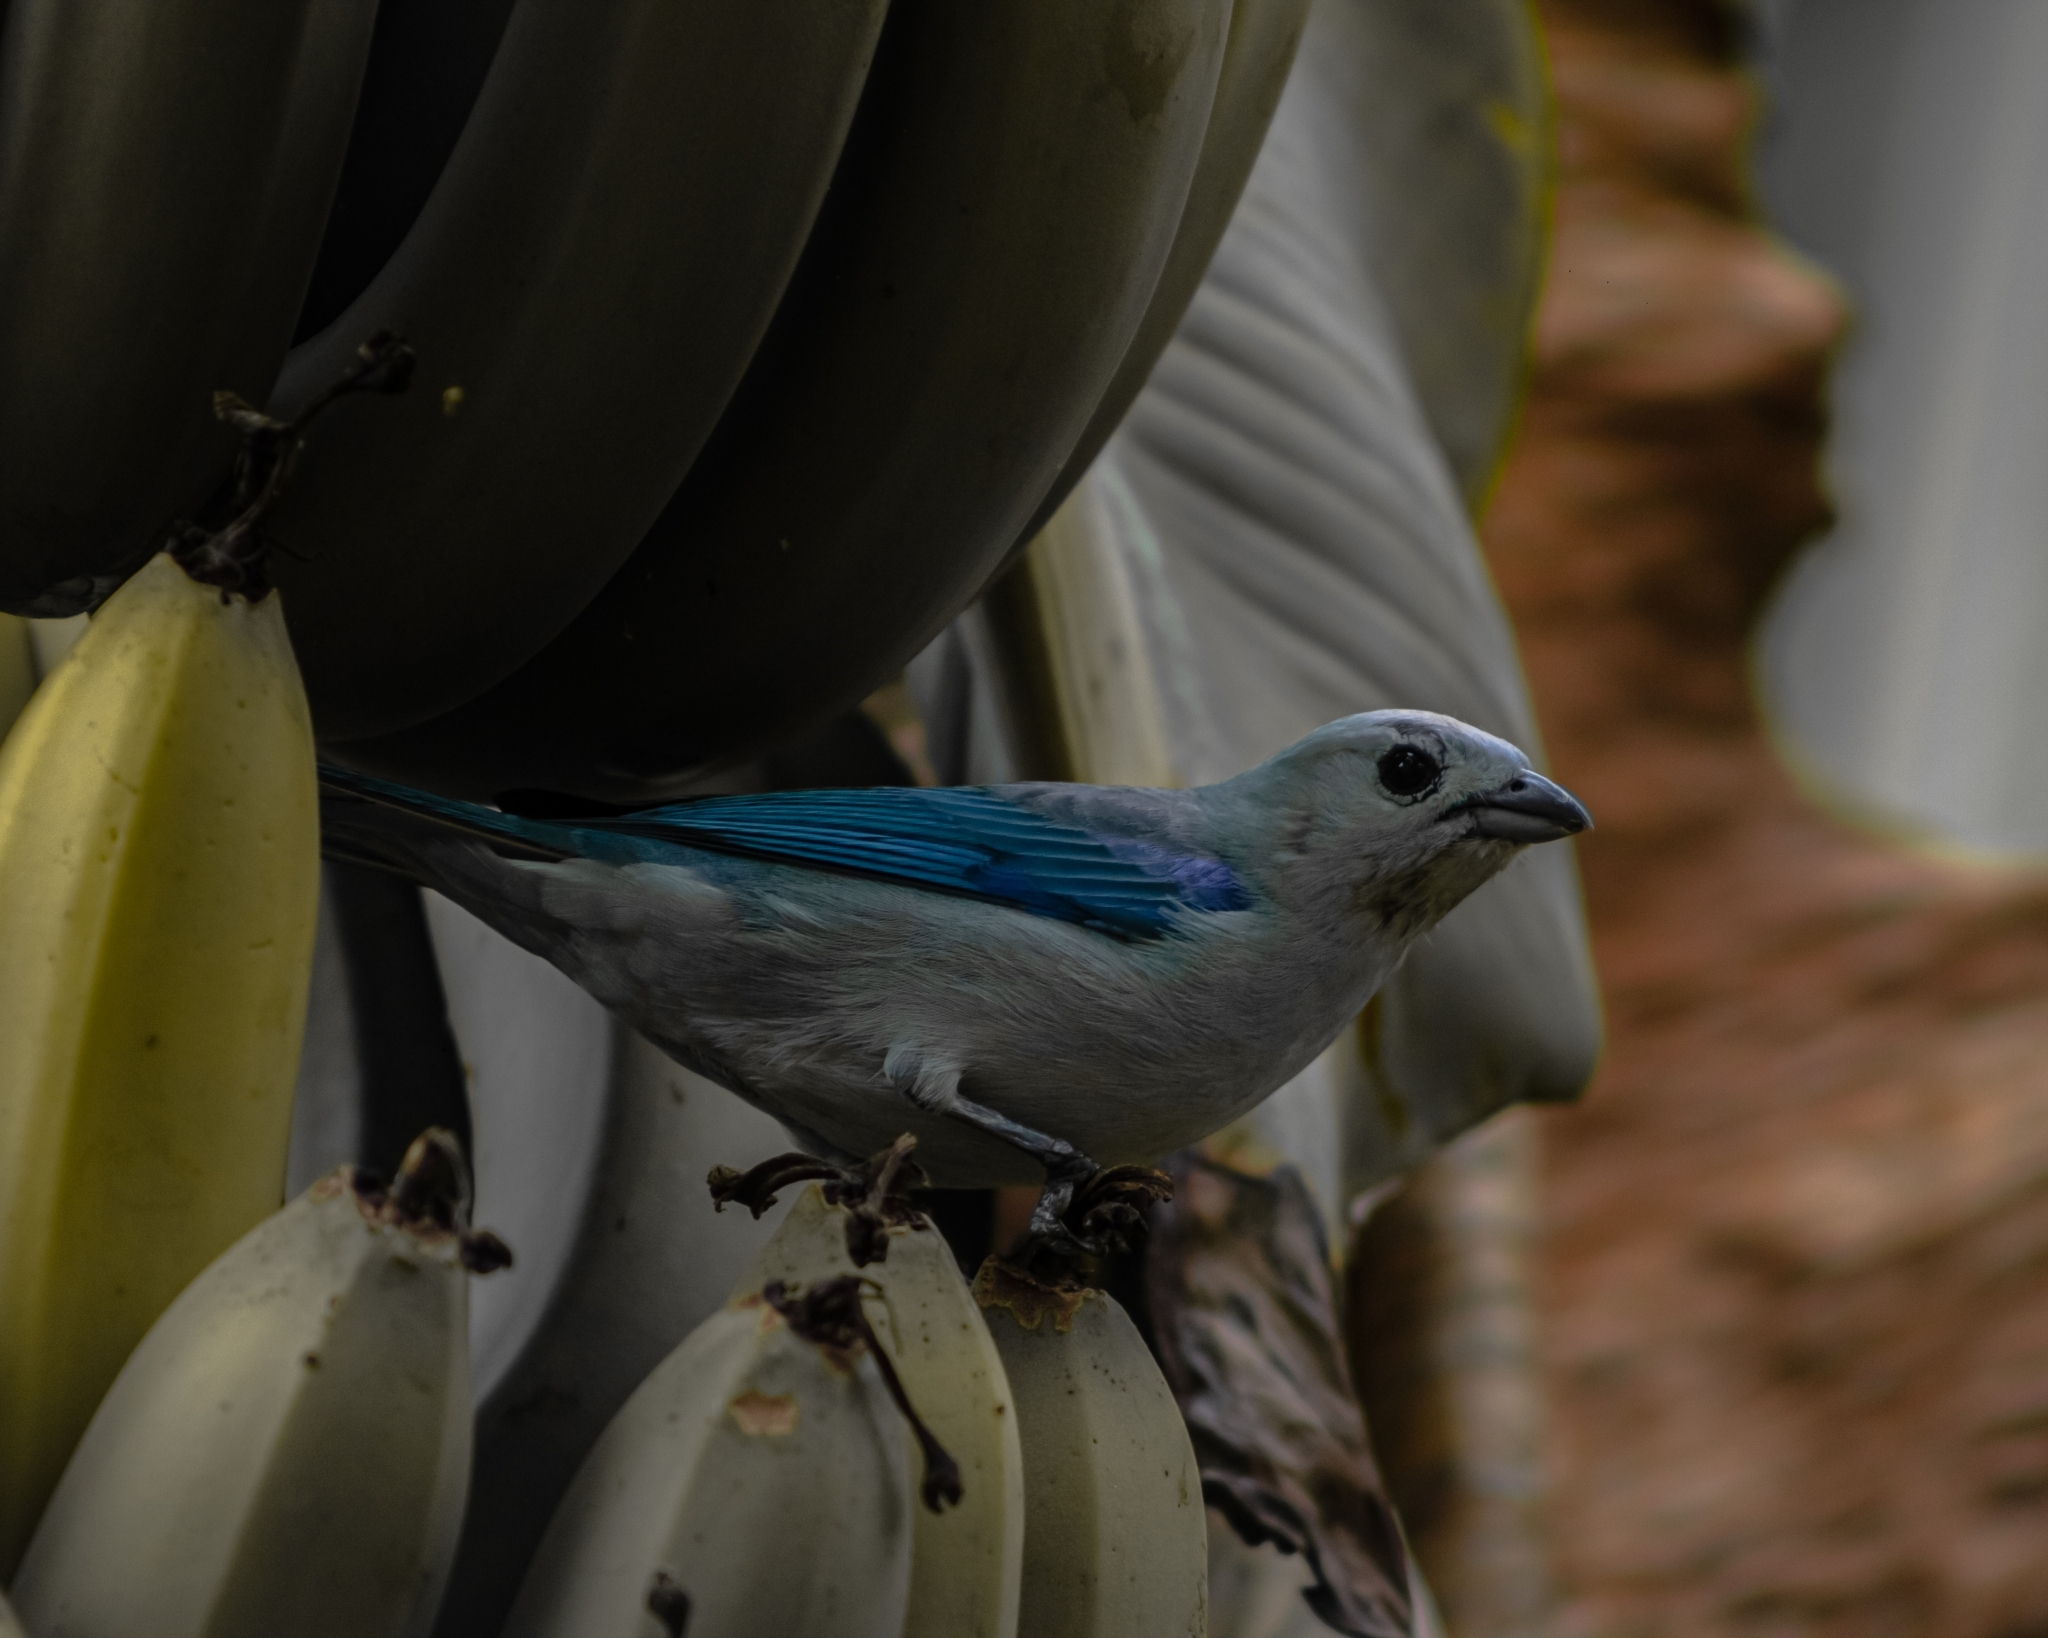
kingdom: Animalia
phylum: Chordata
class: Aves
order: Passeriformes
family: Thraupidae
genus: Thraupis
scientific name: Thraupis episcopus
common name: Blue-grey tanager
